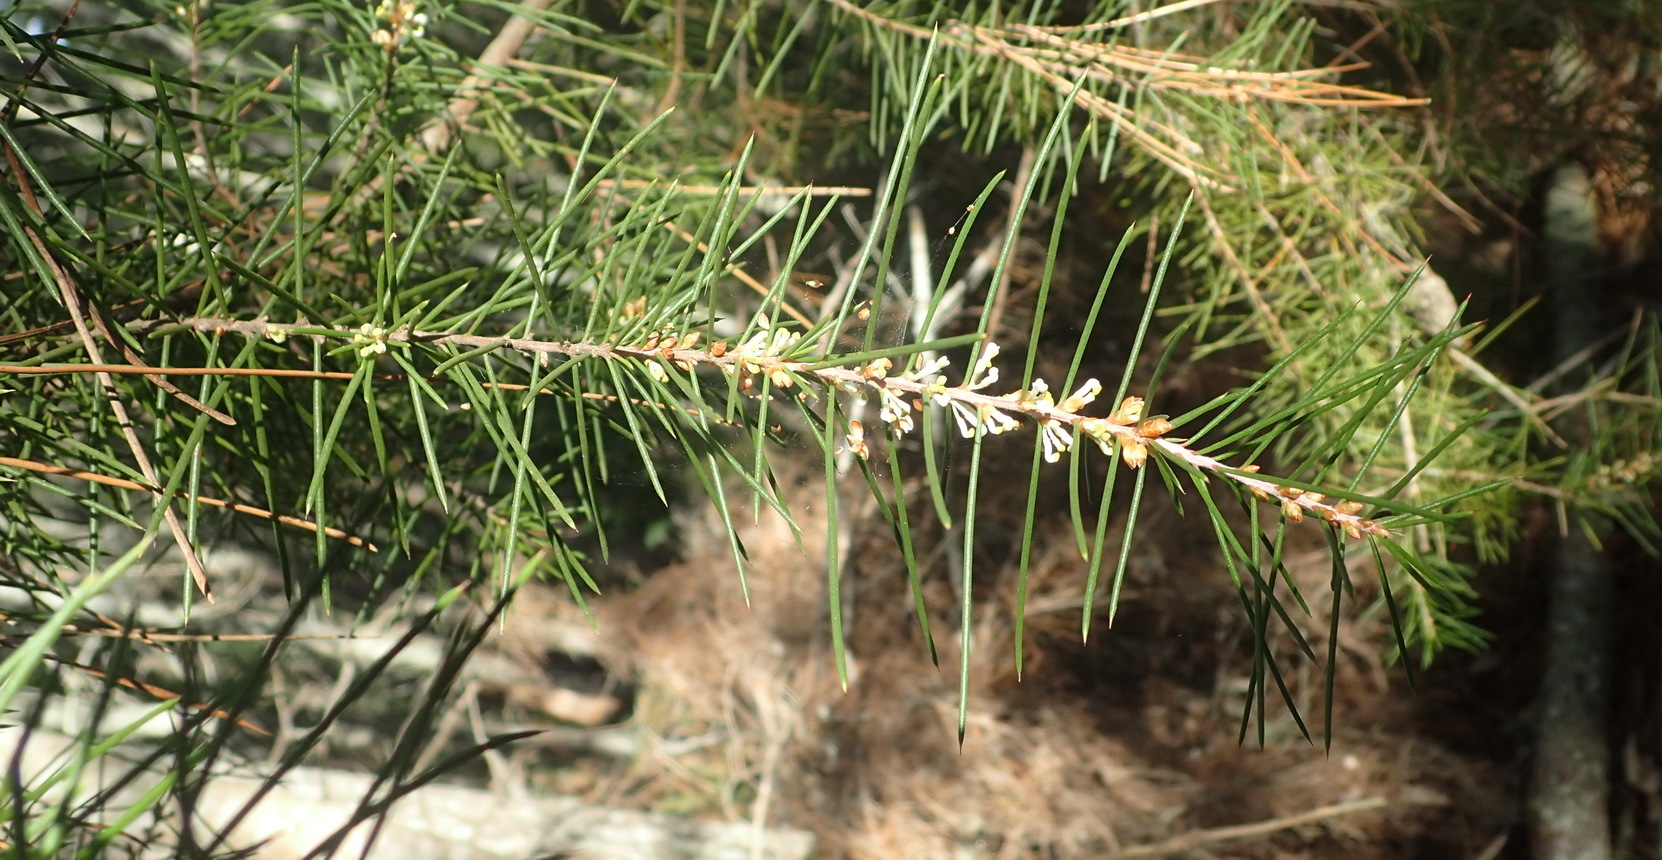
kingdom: Plantae
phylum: Tracheophyta
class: Magnoliopsida
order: Proteales
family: Proteaceae
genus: Hakea
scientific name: Hakea sericea
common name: Needle bush
